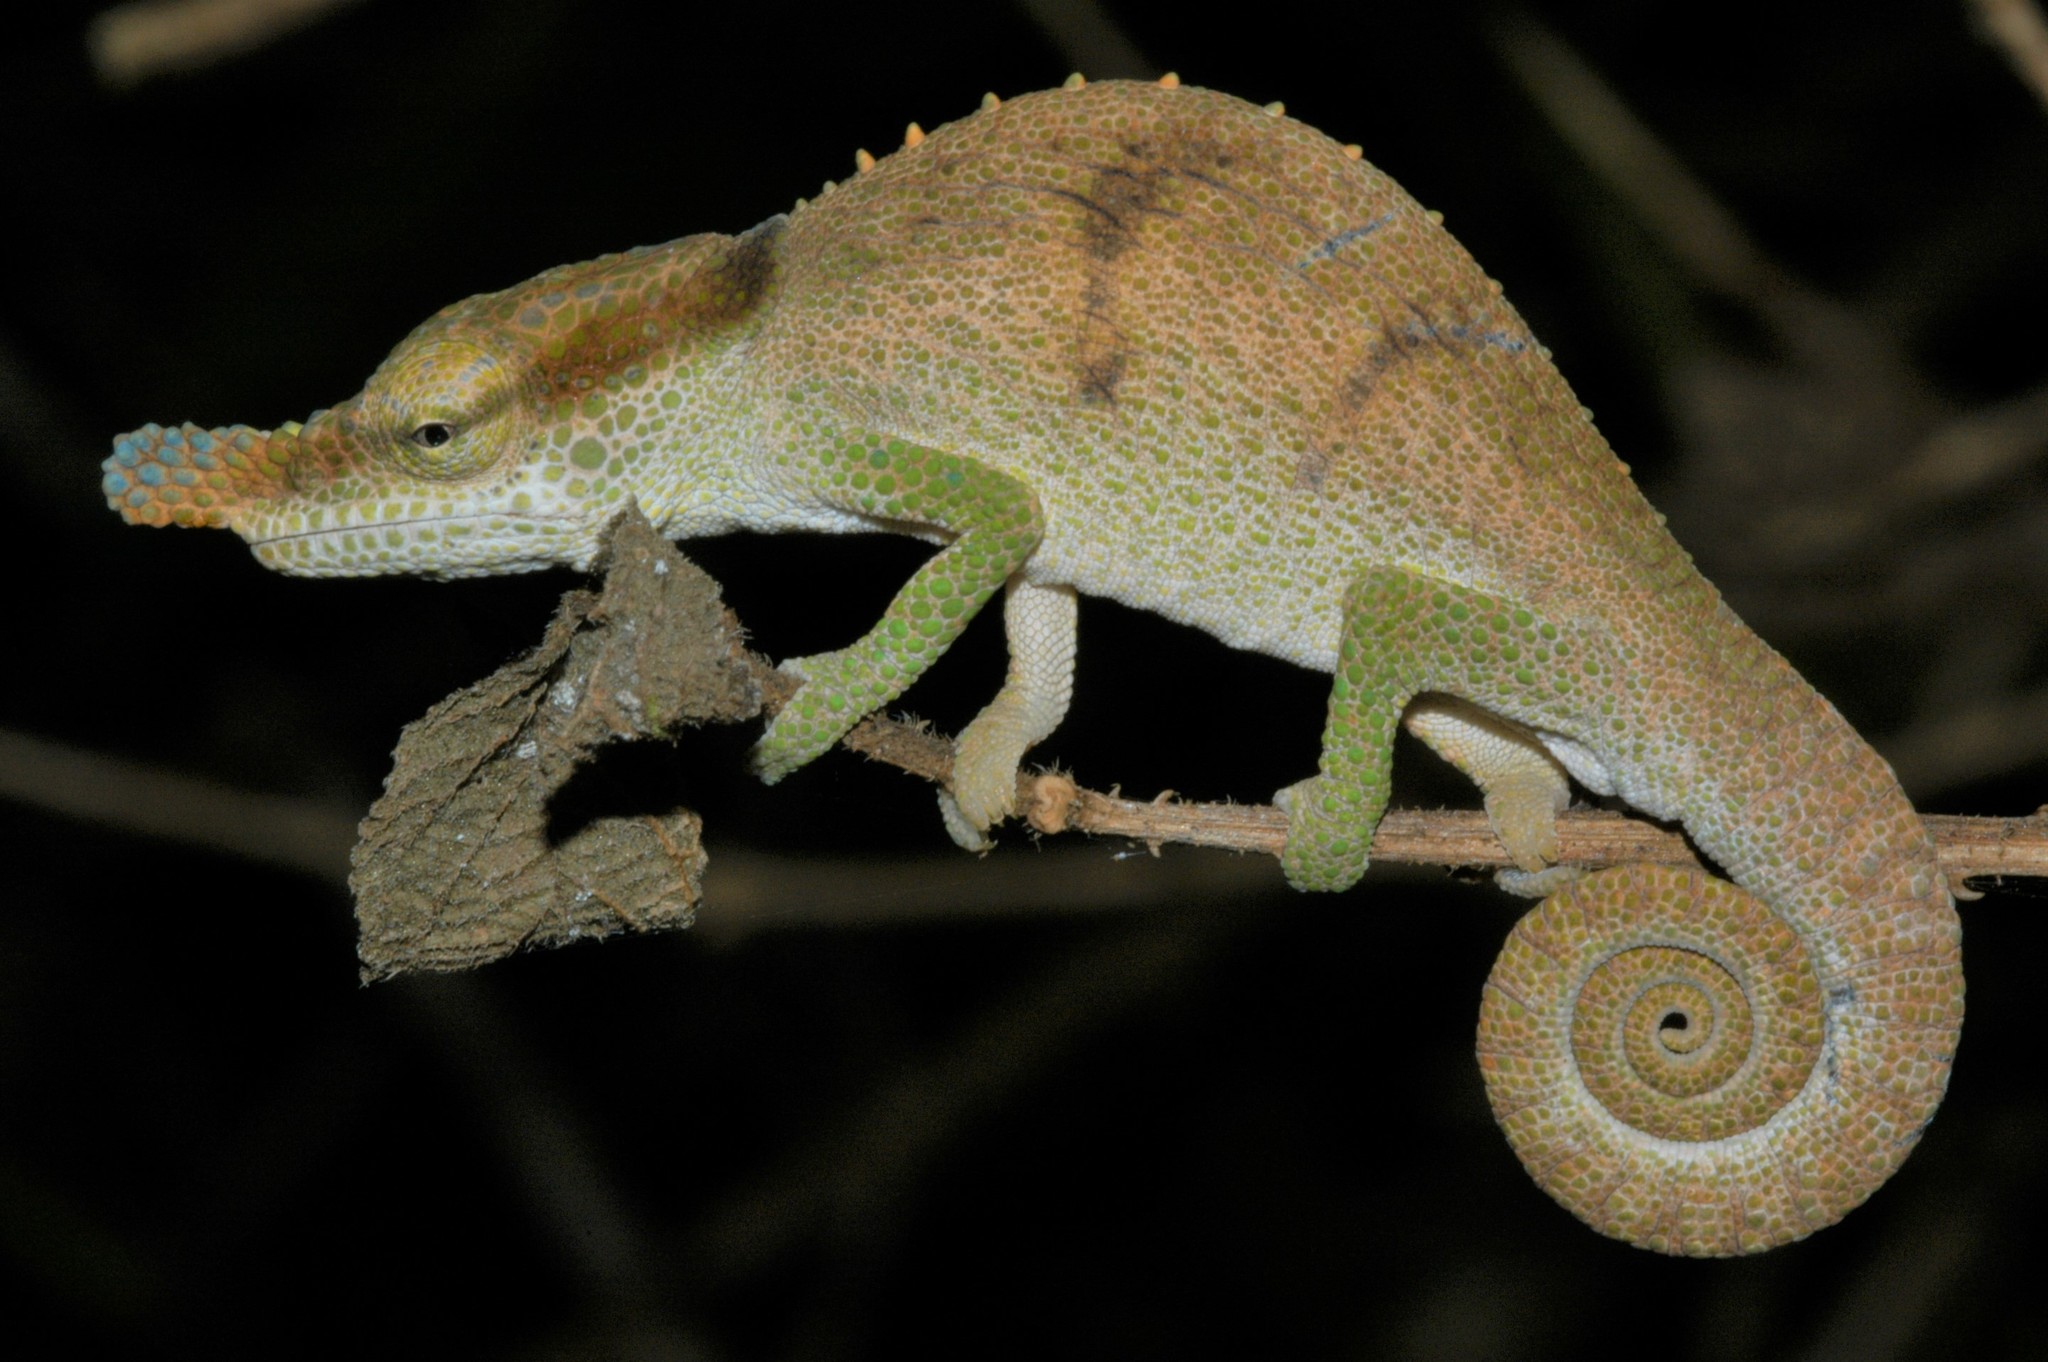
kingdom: Animalia
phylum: Chordata
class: Squamata
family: Chamaeleonidae
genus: Calumma
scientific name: Calumma linotum
